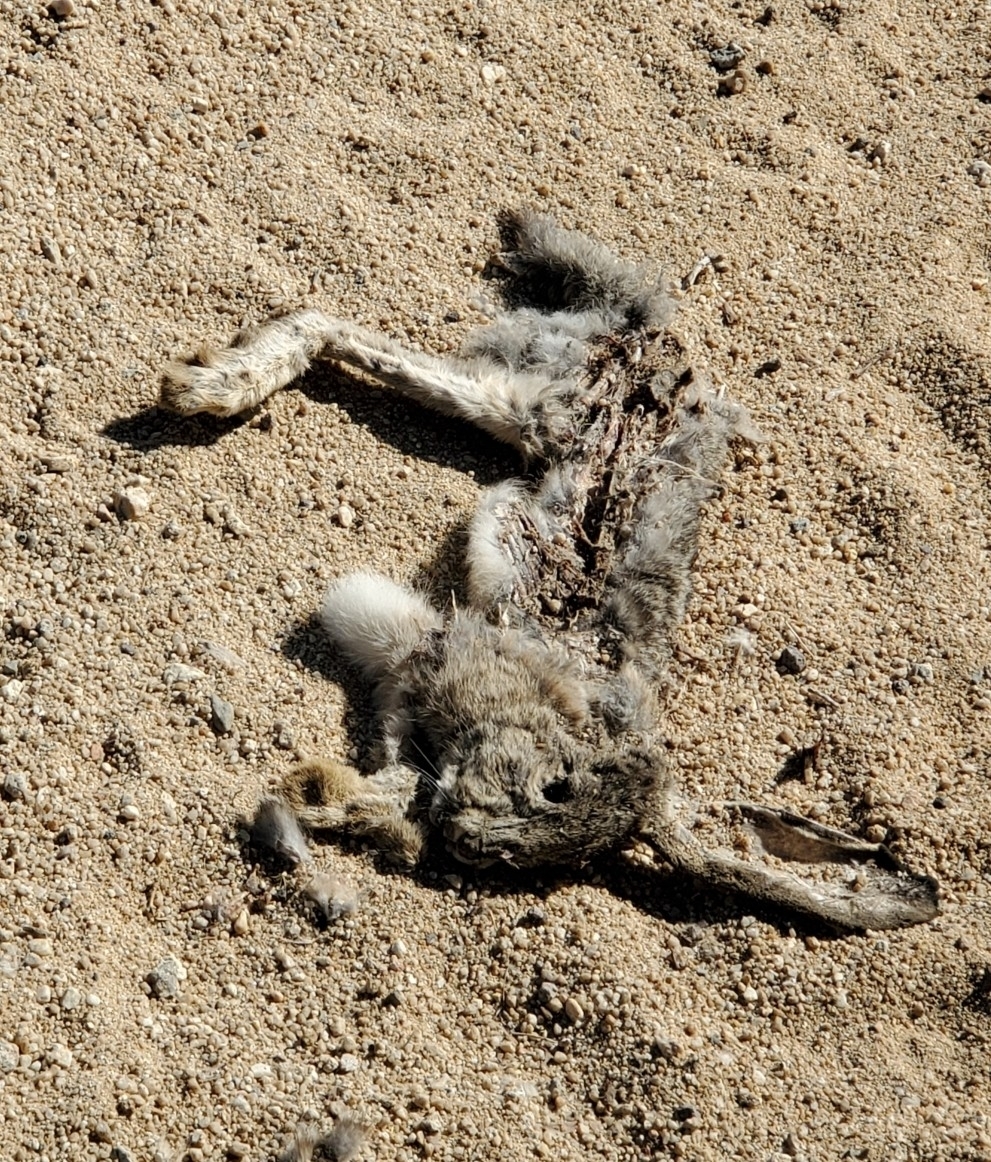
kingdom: Animalia
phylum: Chordata
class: Mammalia
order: Lagomorpha
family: Leporidae
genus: Lepus
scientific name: Lepus californicus
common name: Black-tailed jackrabbit
